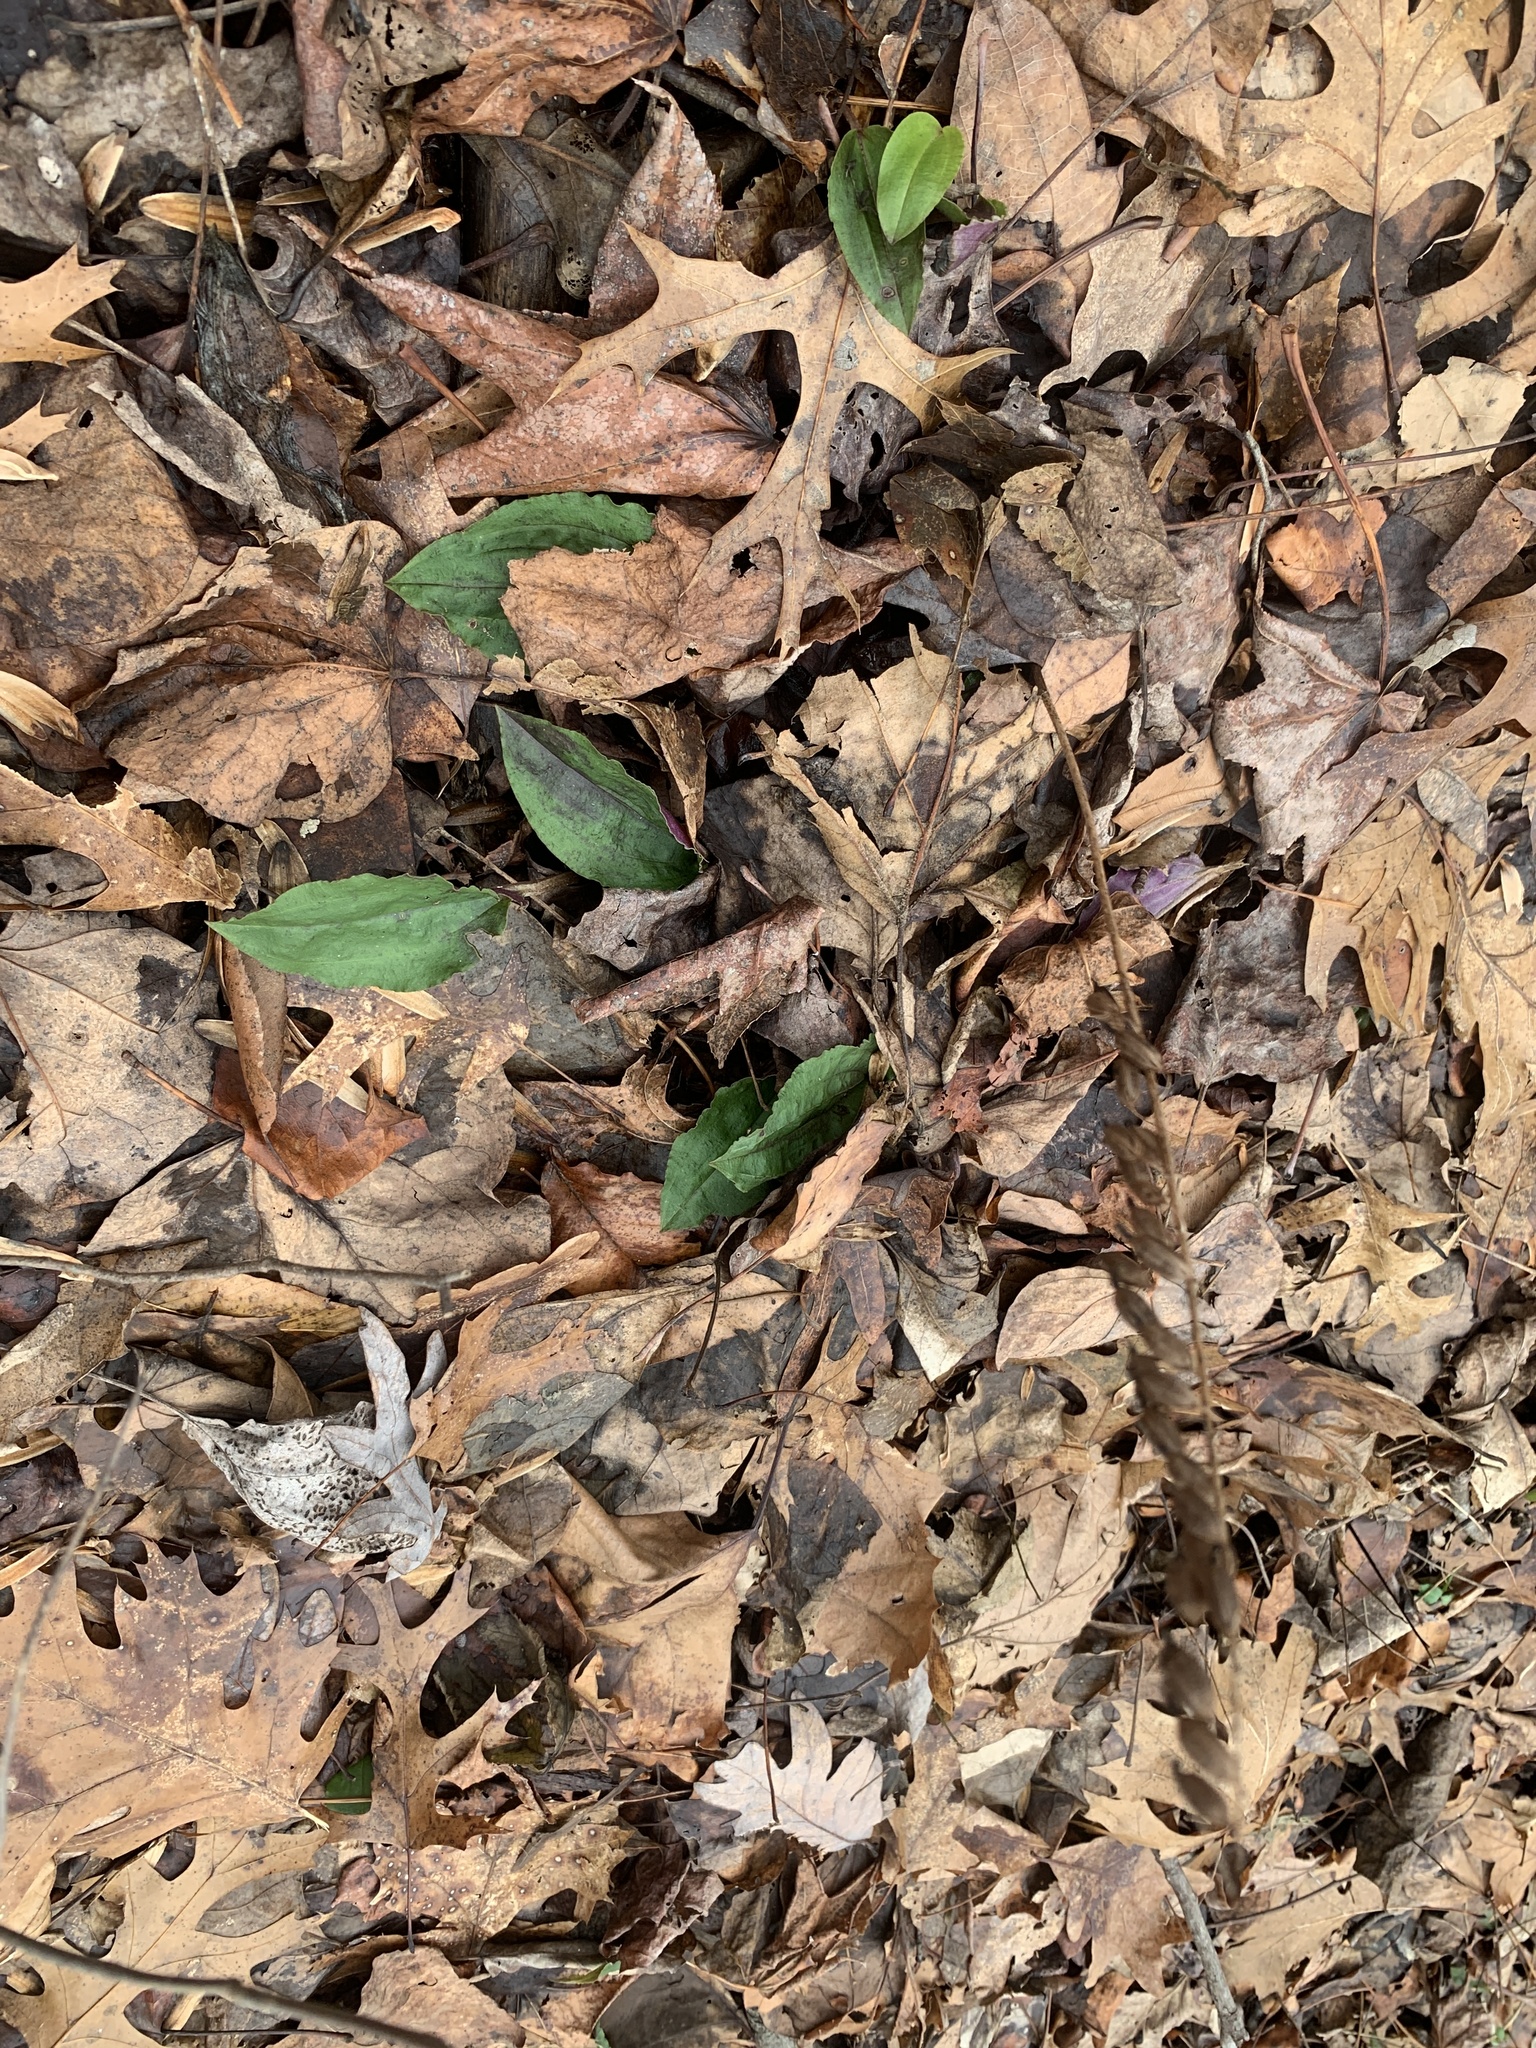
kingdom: Plantae
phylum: Tracheophyta
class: Liliopsida
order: Asparagales
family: Orchidaceae
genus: Tipularia
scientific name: Tipularia discolor
